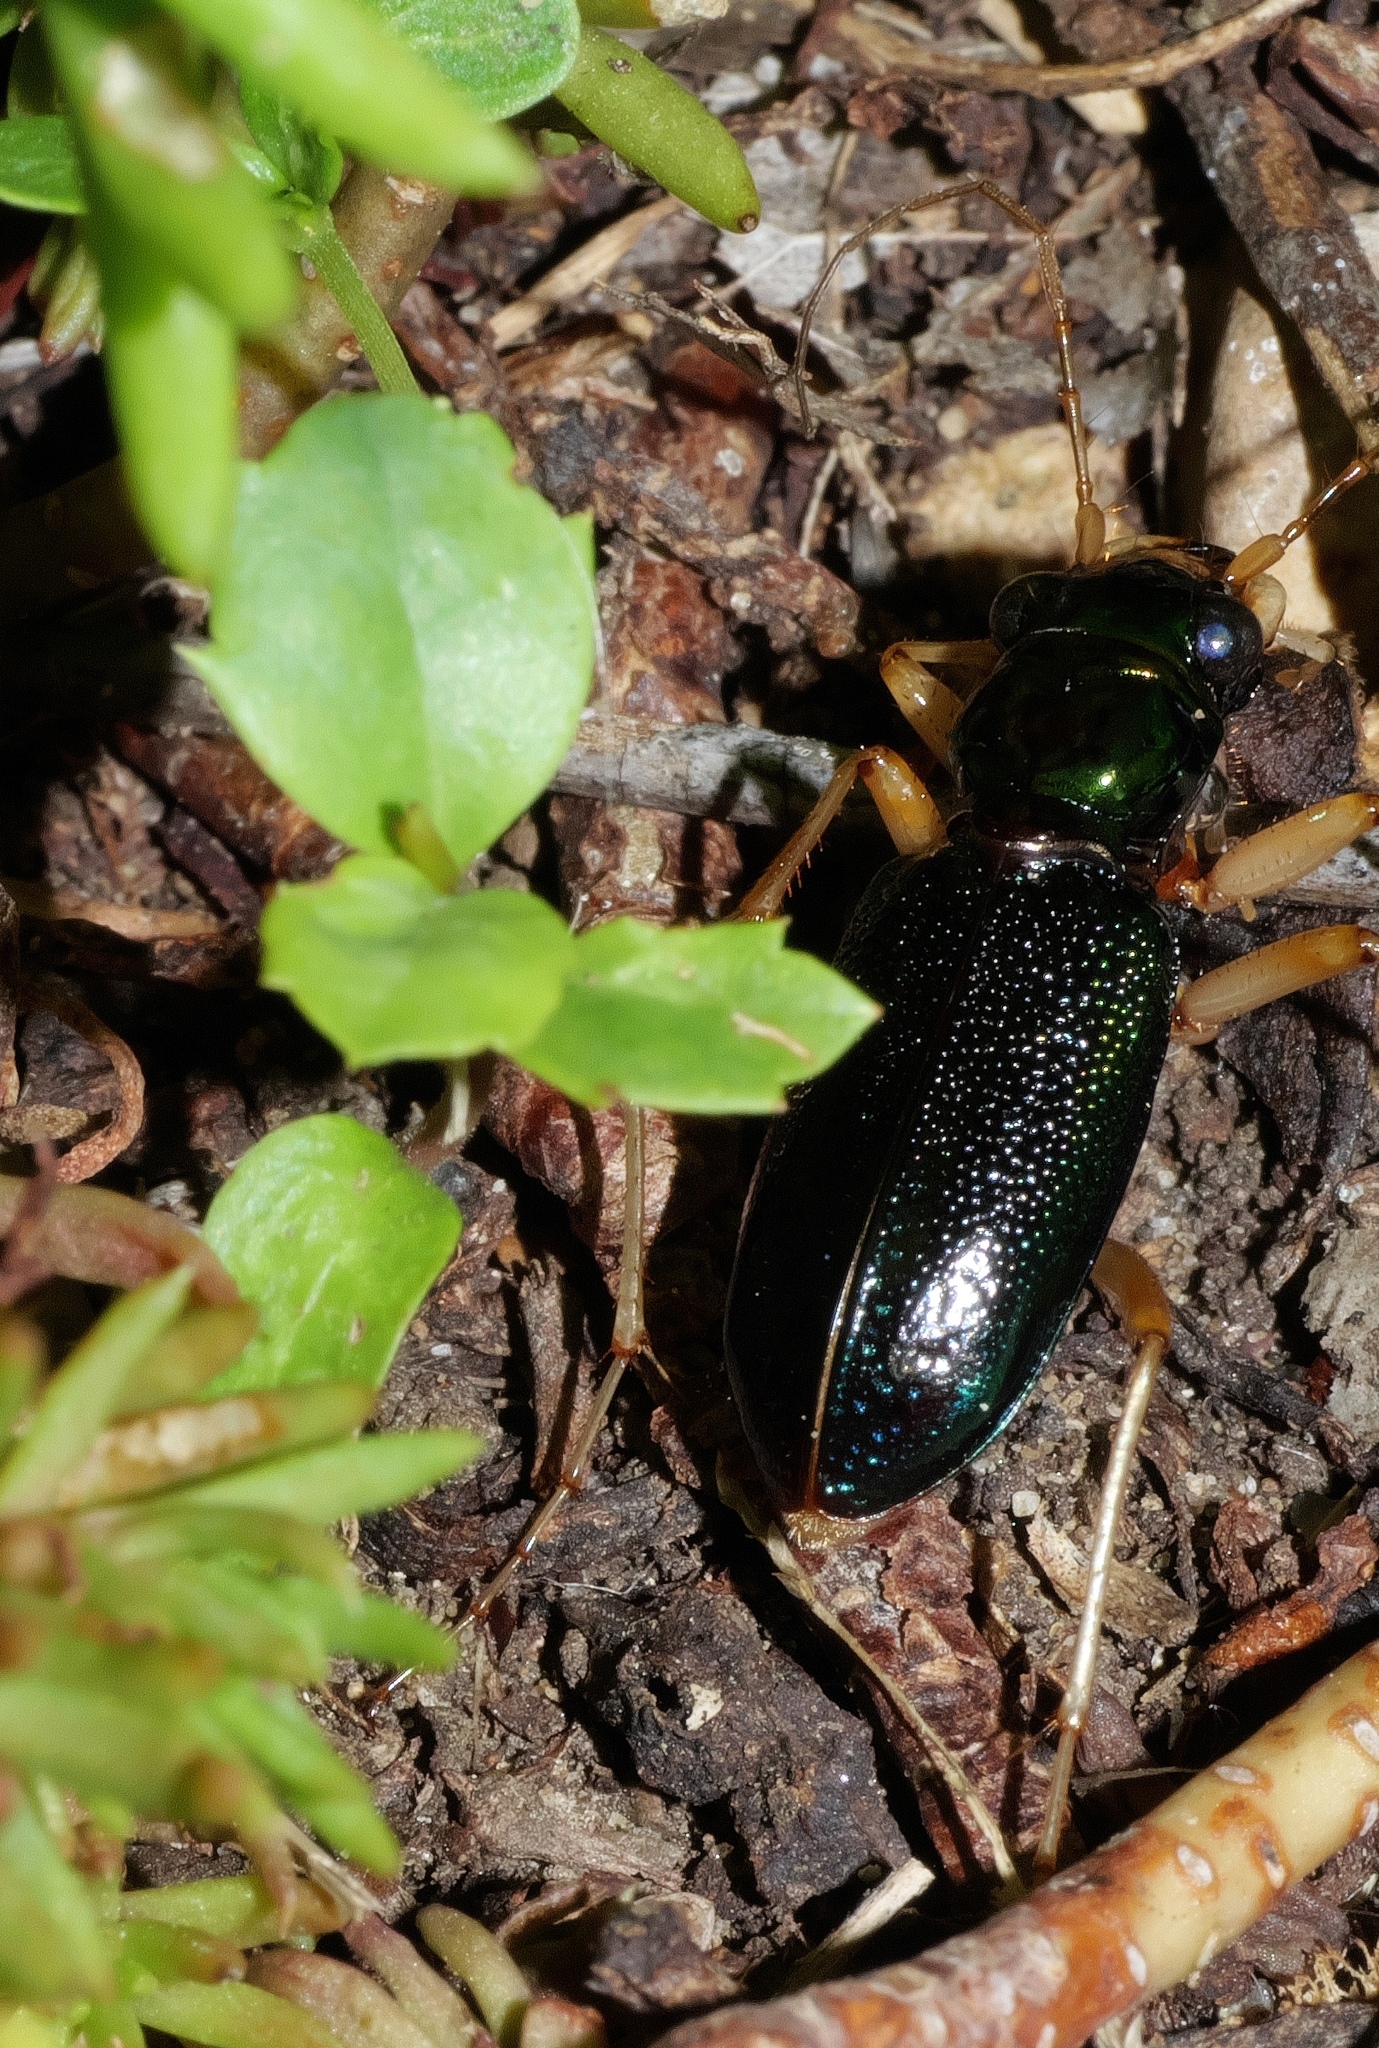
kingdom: Animalia
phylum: Arthropoda
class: Insecta
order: Coleoptera
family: Carabidae
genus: Tetracha
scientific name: Tetracha virginica
